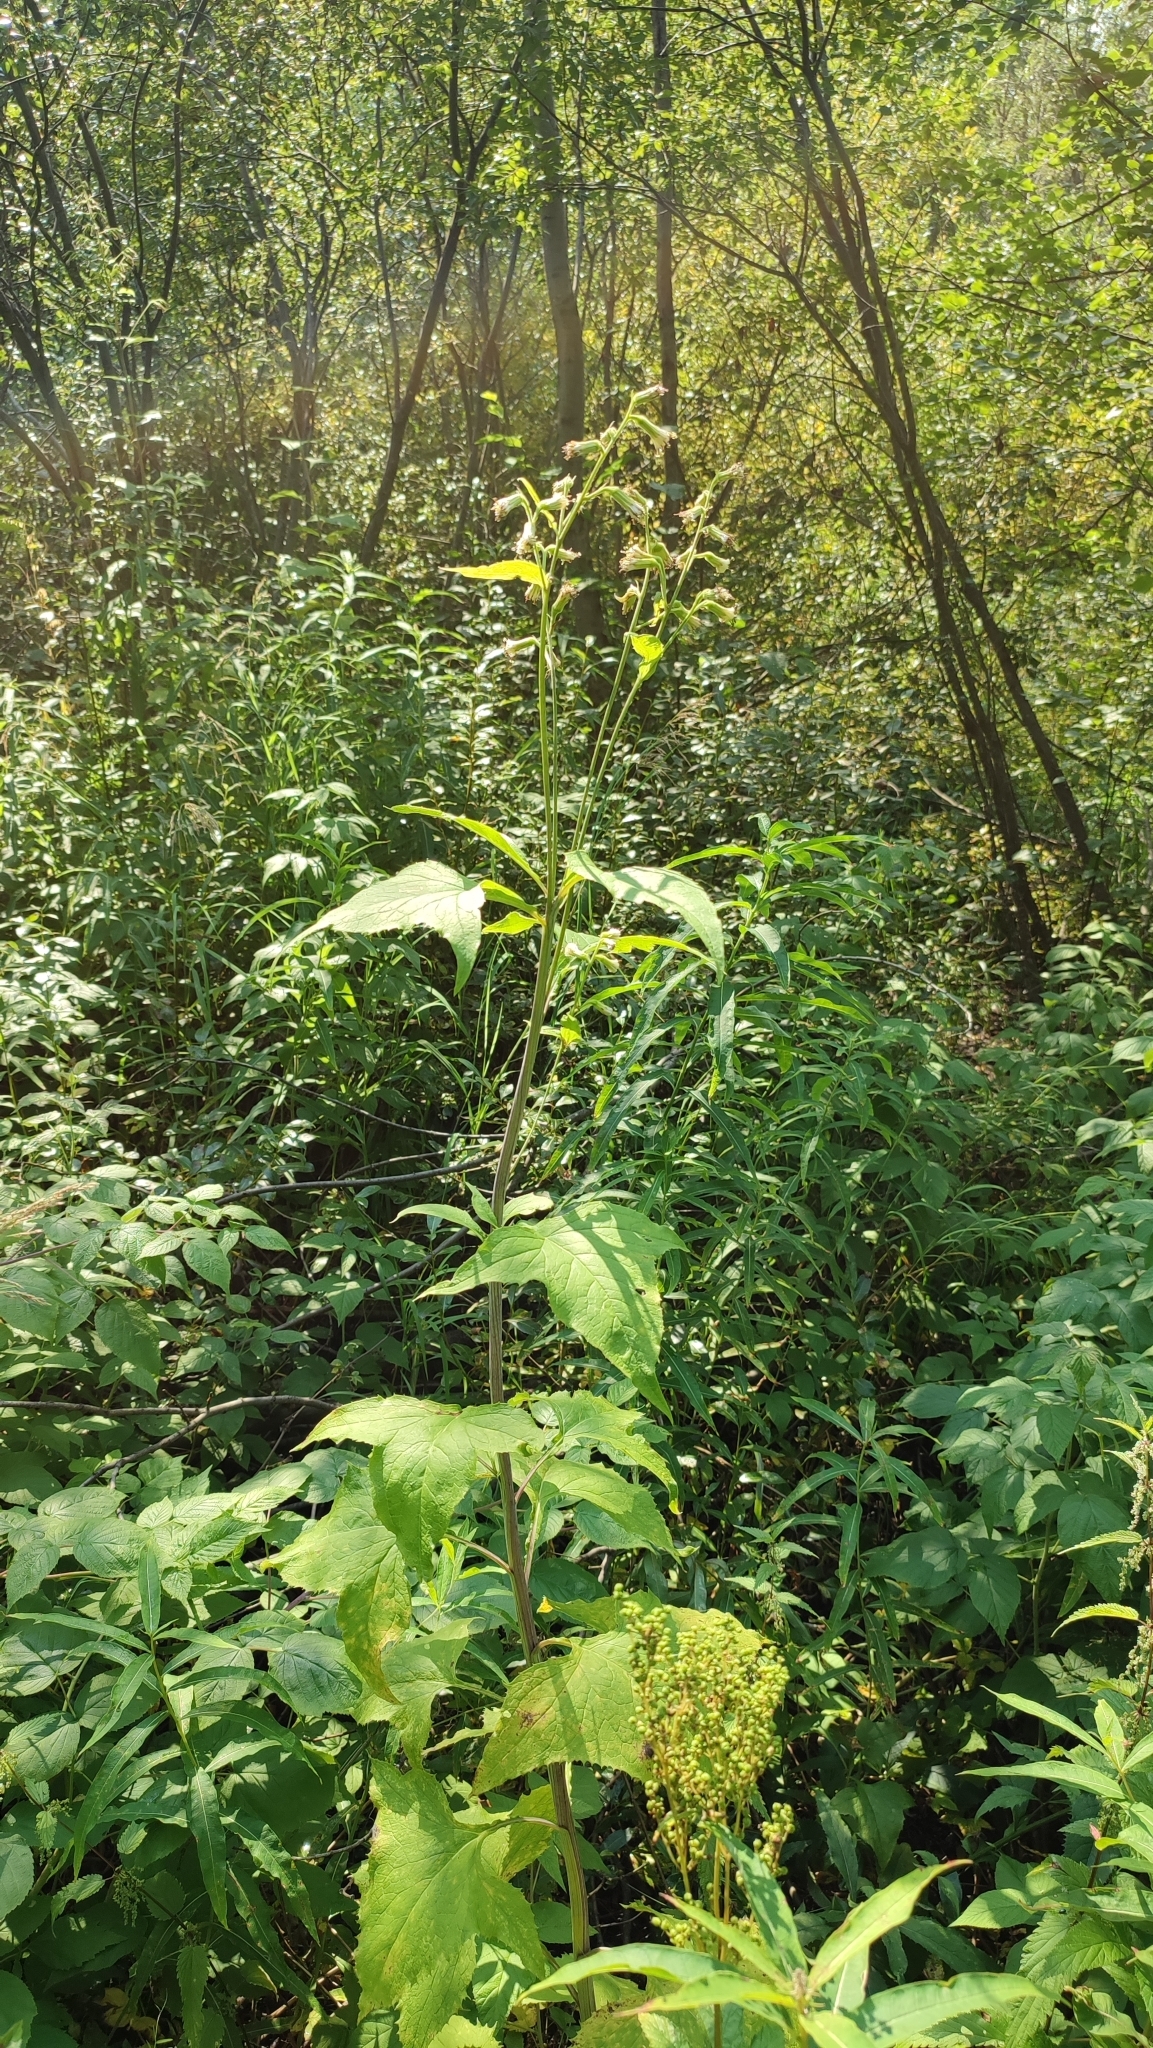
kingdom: Plantae
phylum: Tracheophyta
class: Magnoliopsida
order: Asterales
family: Asteraceae
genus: Parasenecio
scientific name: Parasenecio hastatus
